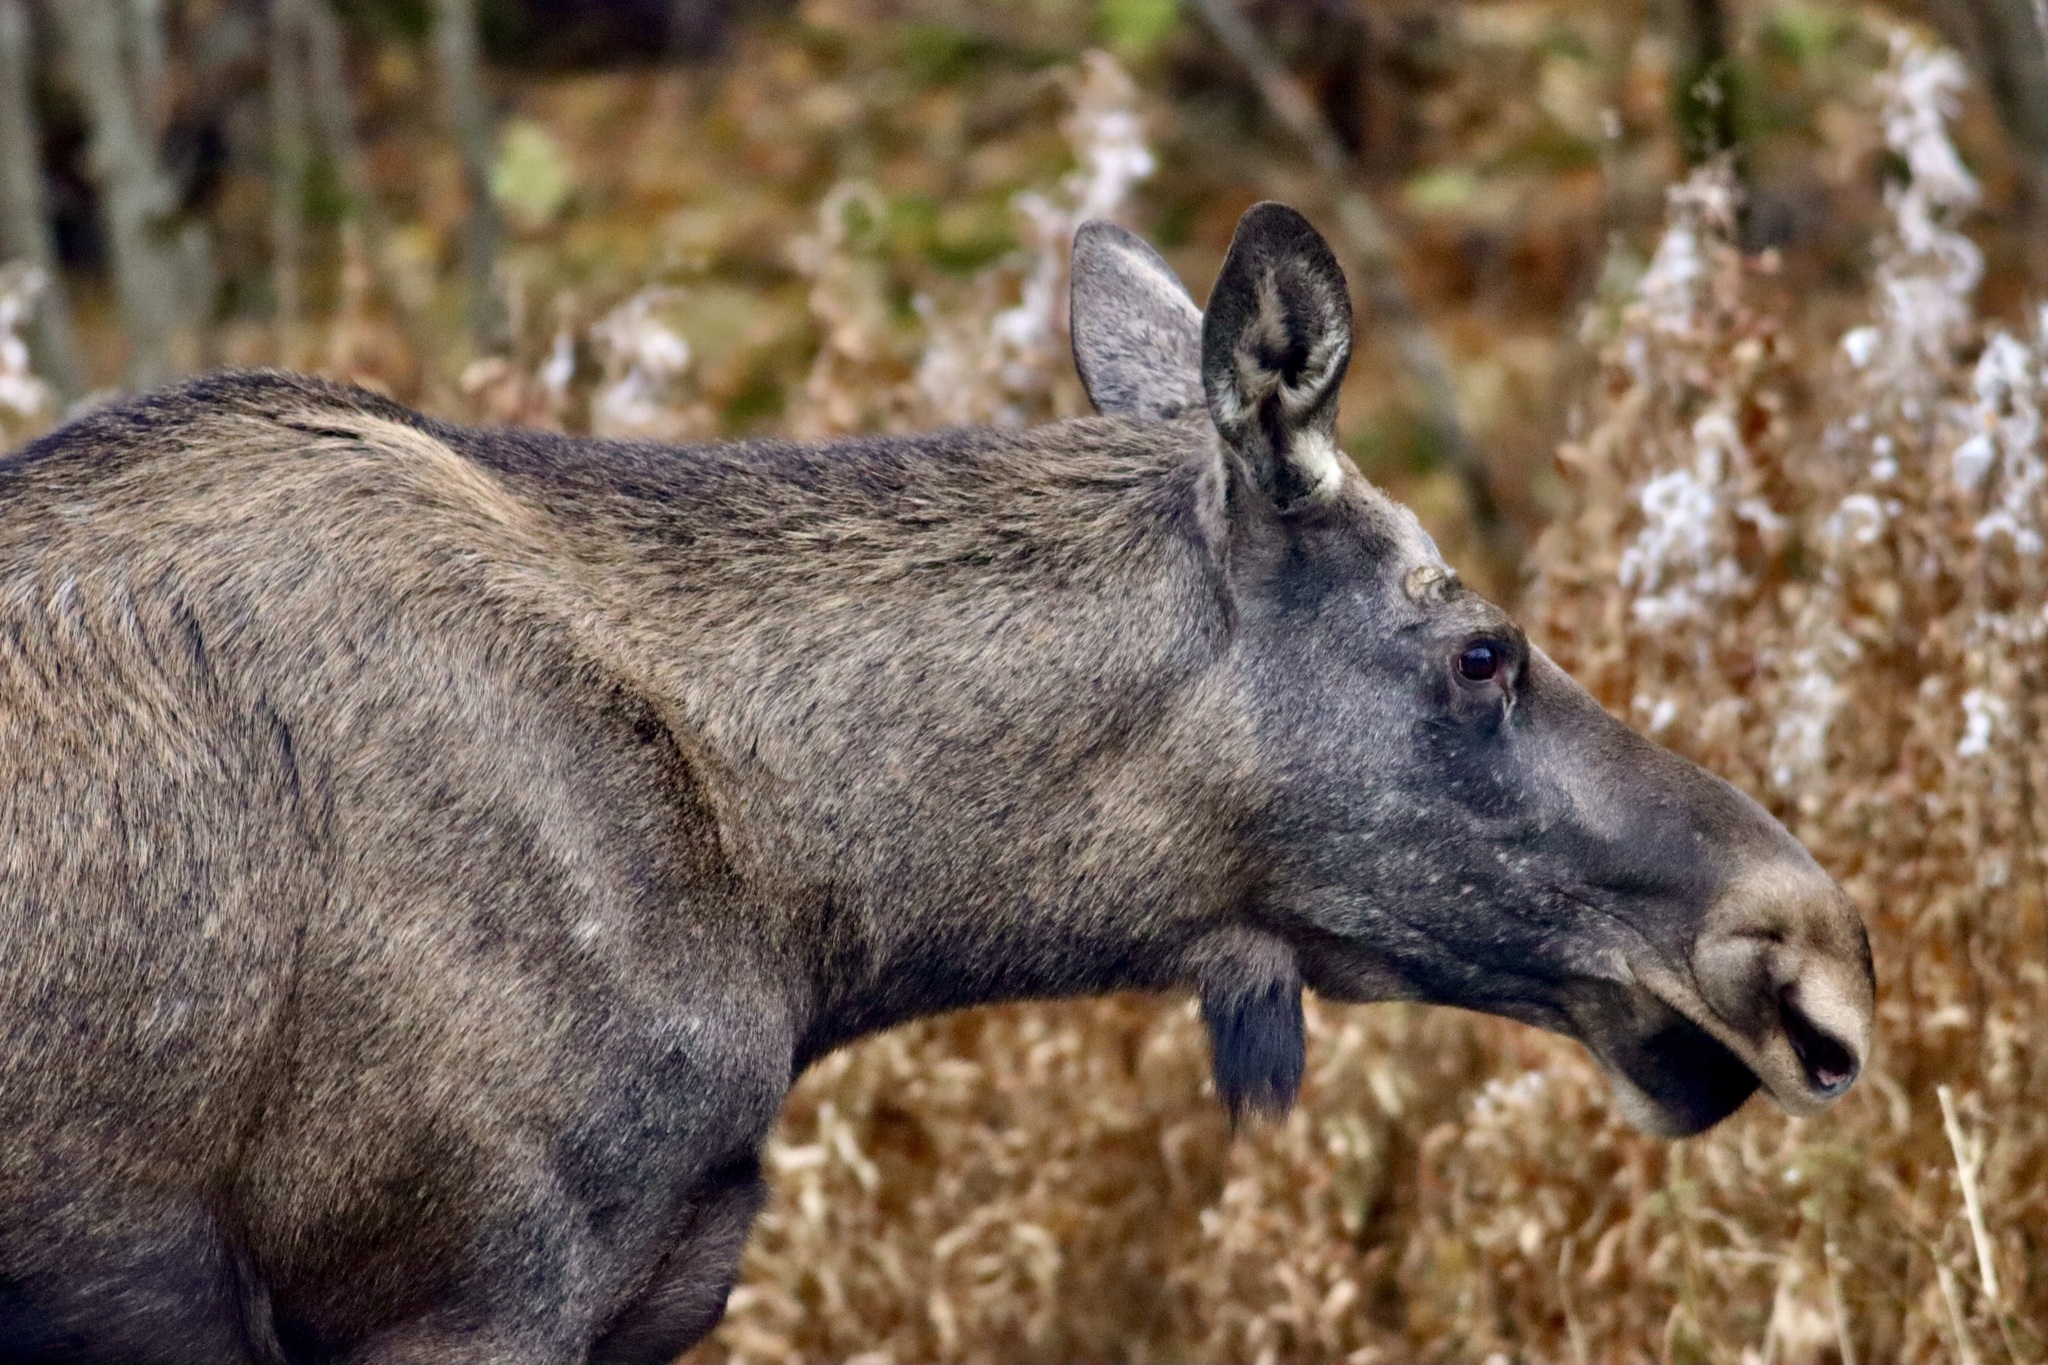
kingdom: Animalia
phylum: Chordata
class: Mammalia
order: Artiodactyla
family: Cervidae
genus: Alces
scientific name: Alces alces
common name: Moose
